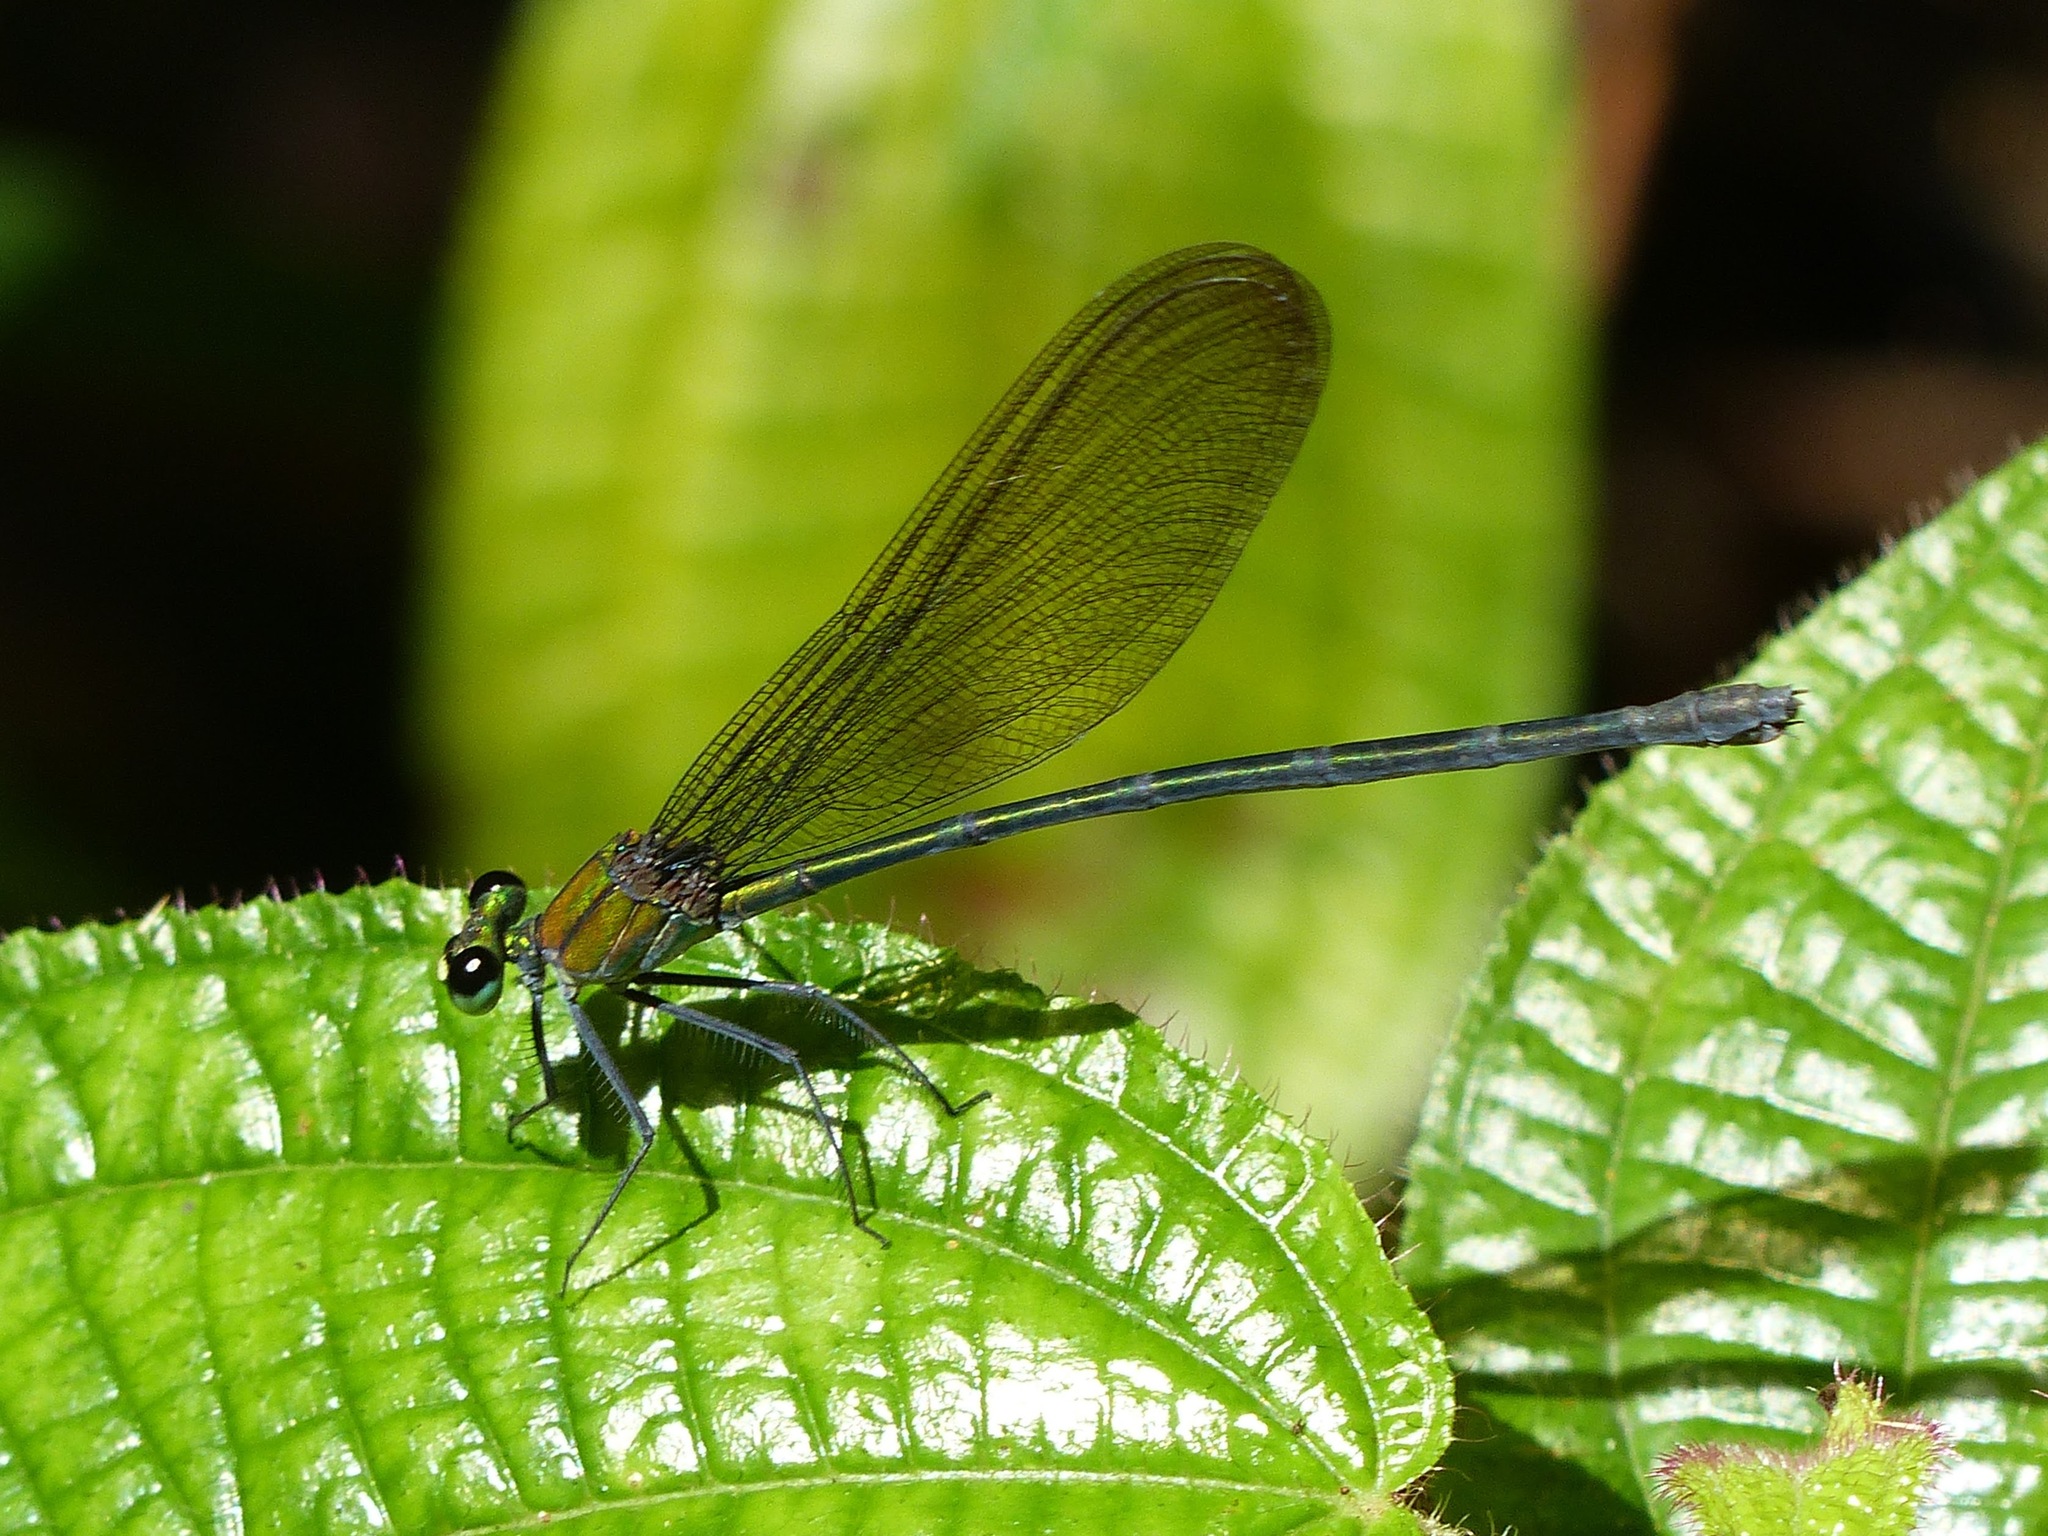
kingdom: Animalia
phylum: Arthropoda
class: Insecta
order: Odonata
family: Calopterygidae
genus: Vestalis
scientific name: Vestalis nigrescens
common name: Black-tipped demoiselle
